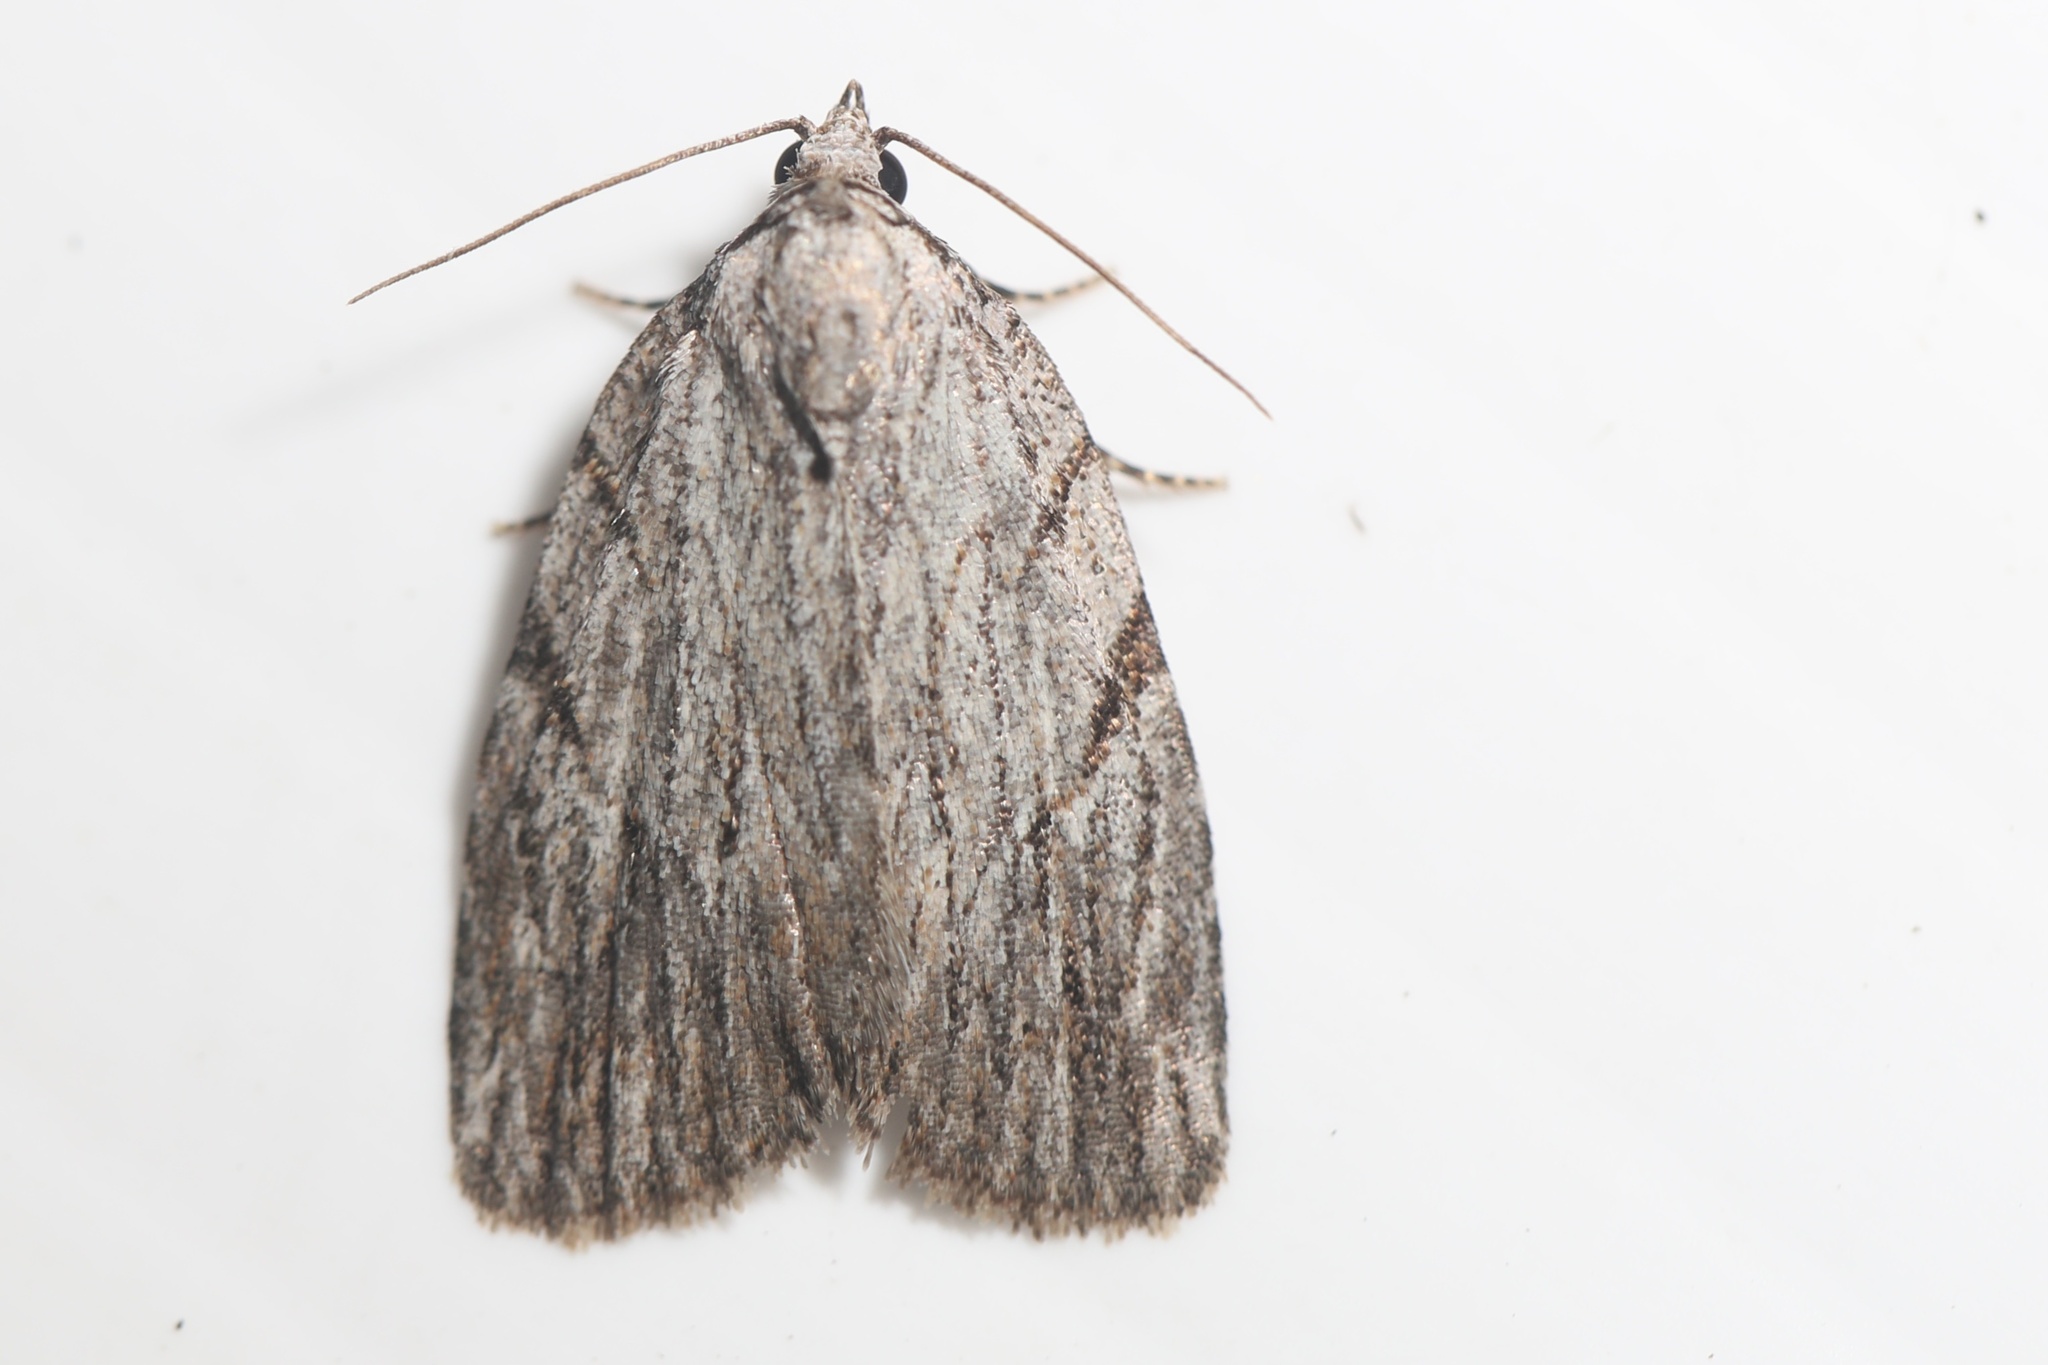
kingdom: Animalia
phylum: Arthropoda
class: Insecta
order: Lepidoptera
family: Noctuidae
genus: Balsa
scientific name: Balsa tristrigella
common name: Three-lined balsa moth
